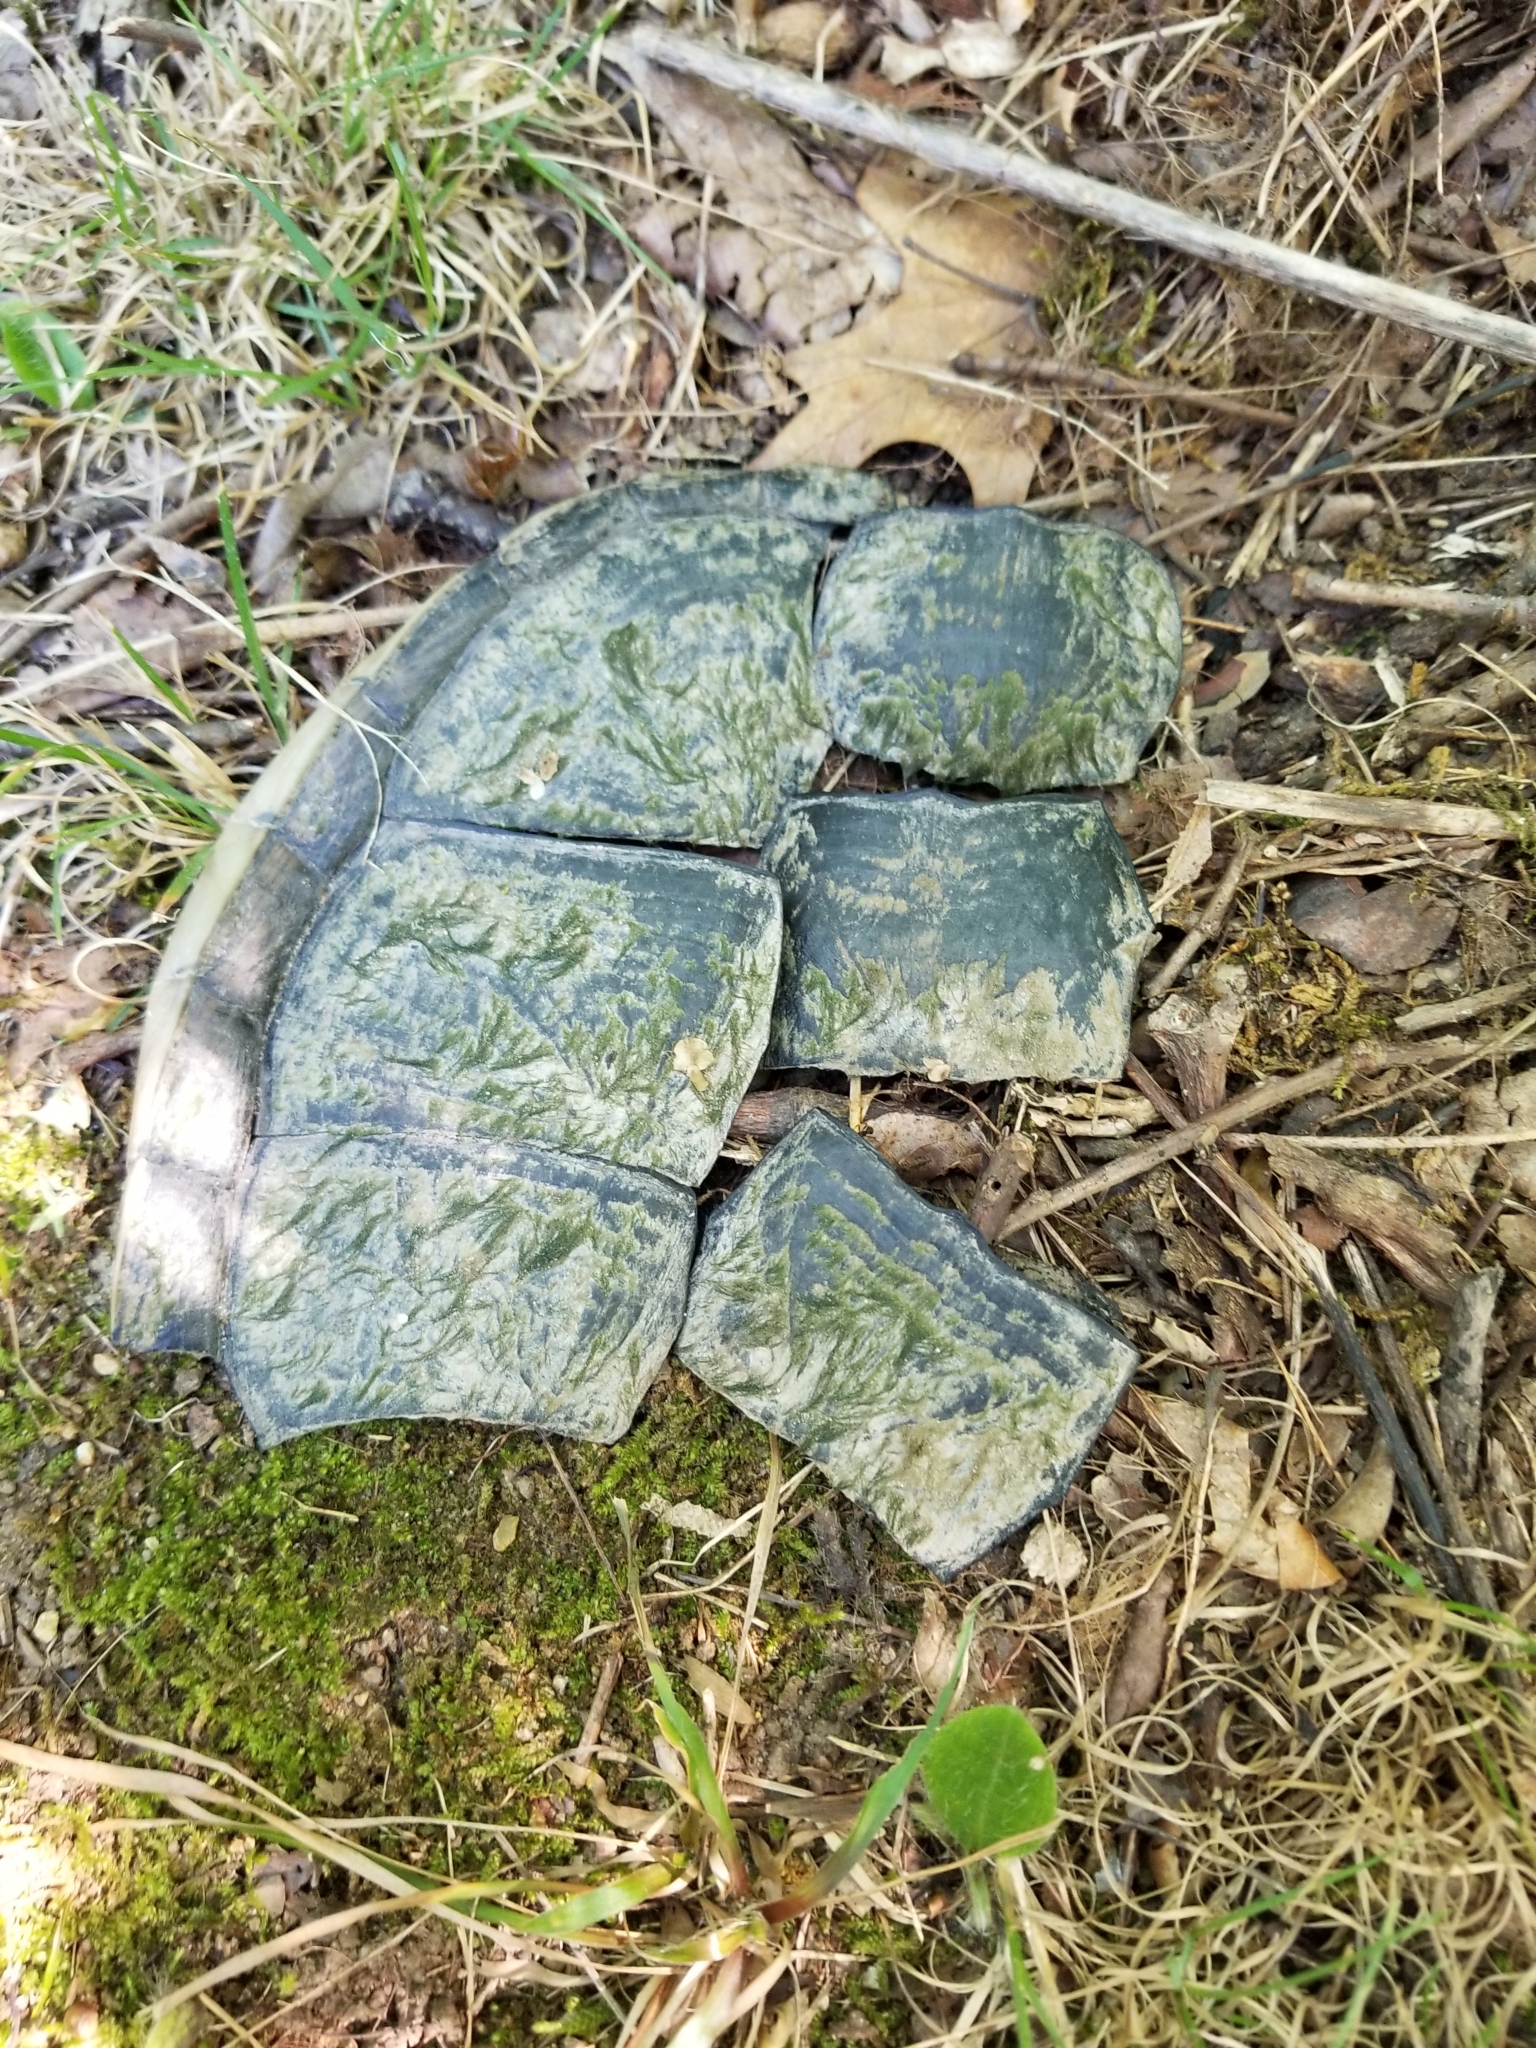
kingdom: Animalia
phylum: Chordata
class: Testudines
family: Chelydridae
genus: Chelydra
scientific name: Chelydra serpentina
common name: Common snapping turtle
